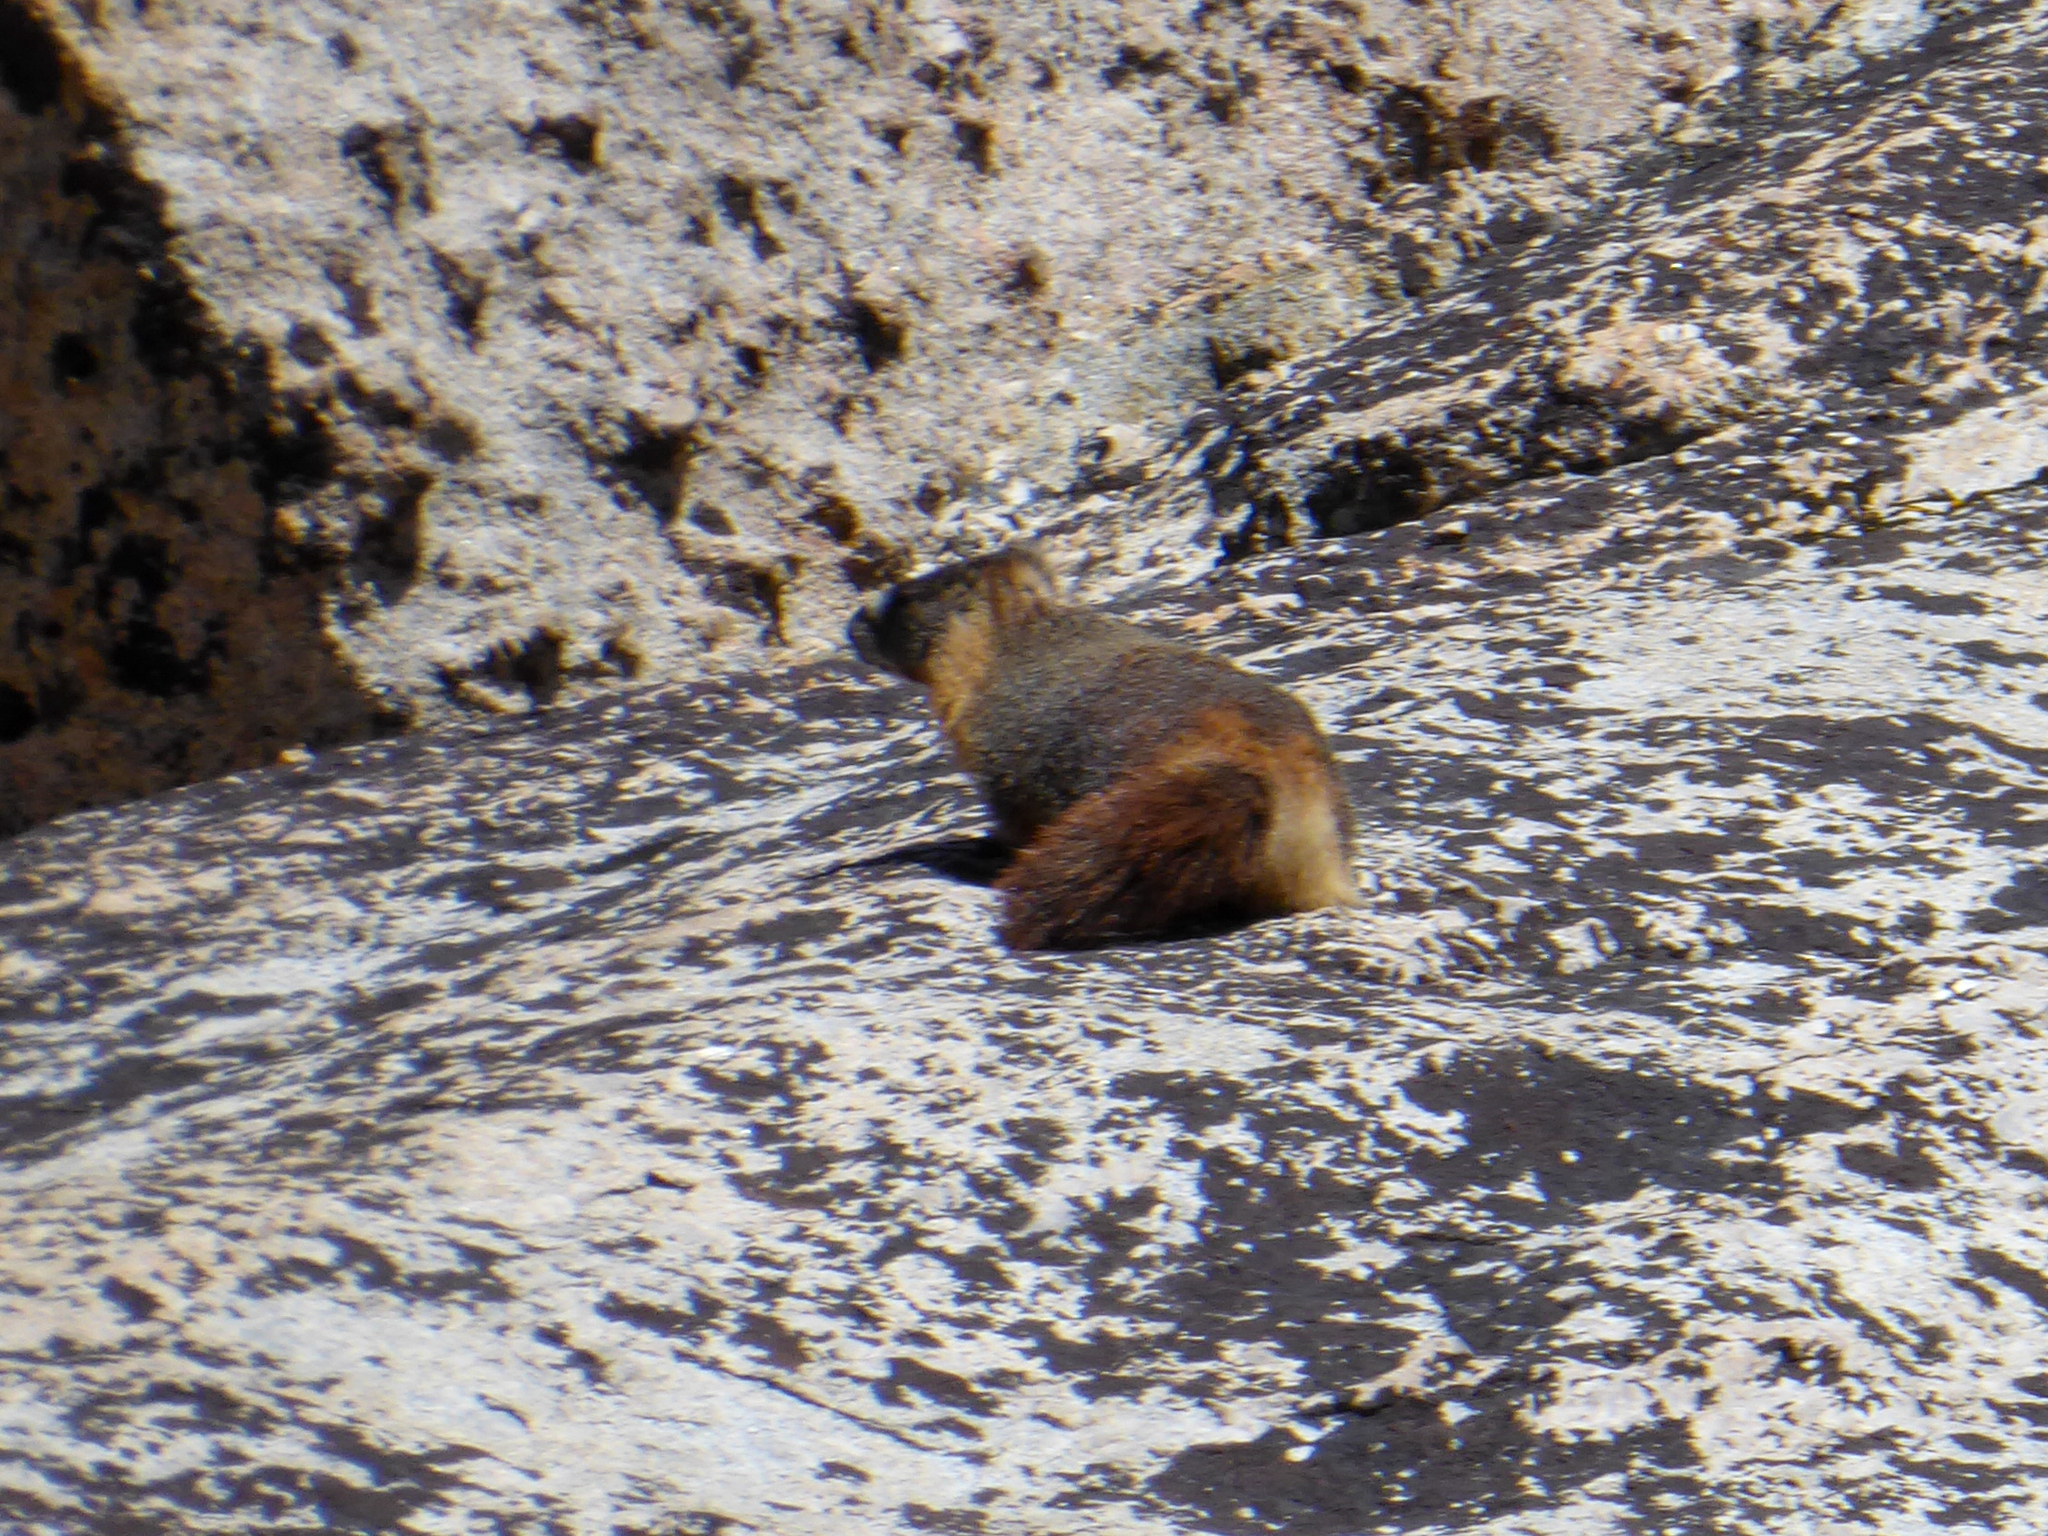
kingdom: Animalia
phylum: Chordata
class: Mammalia
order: Rodentia
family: Sciuridae
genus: Marmota
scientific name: Marmota flaviventris
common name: Yellow-bellied marmot
